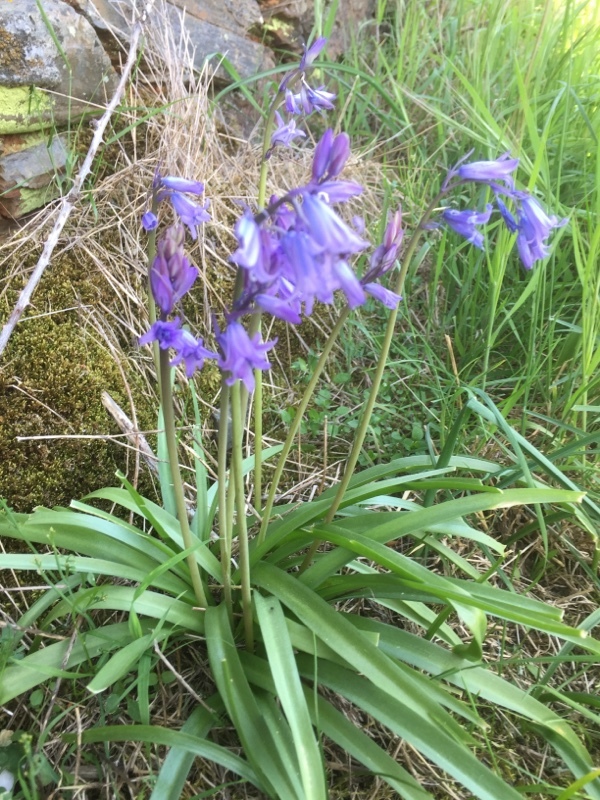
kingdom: Plantae
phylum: Tracheophyta
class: Liliopsida
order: Asparagales
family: Asparagaceae
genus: Hyacinthoides
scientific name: Hyacinthoides hispanica
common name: Spanish bluebell
